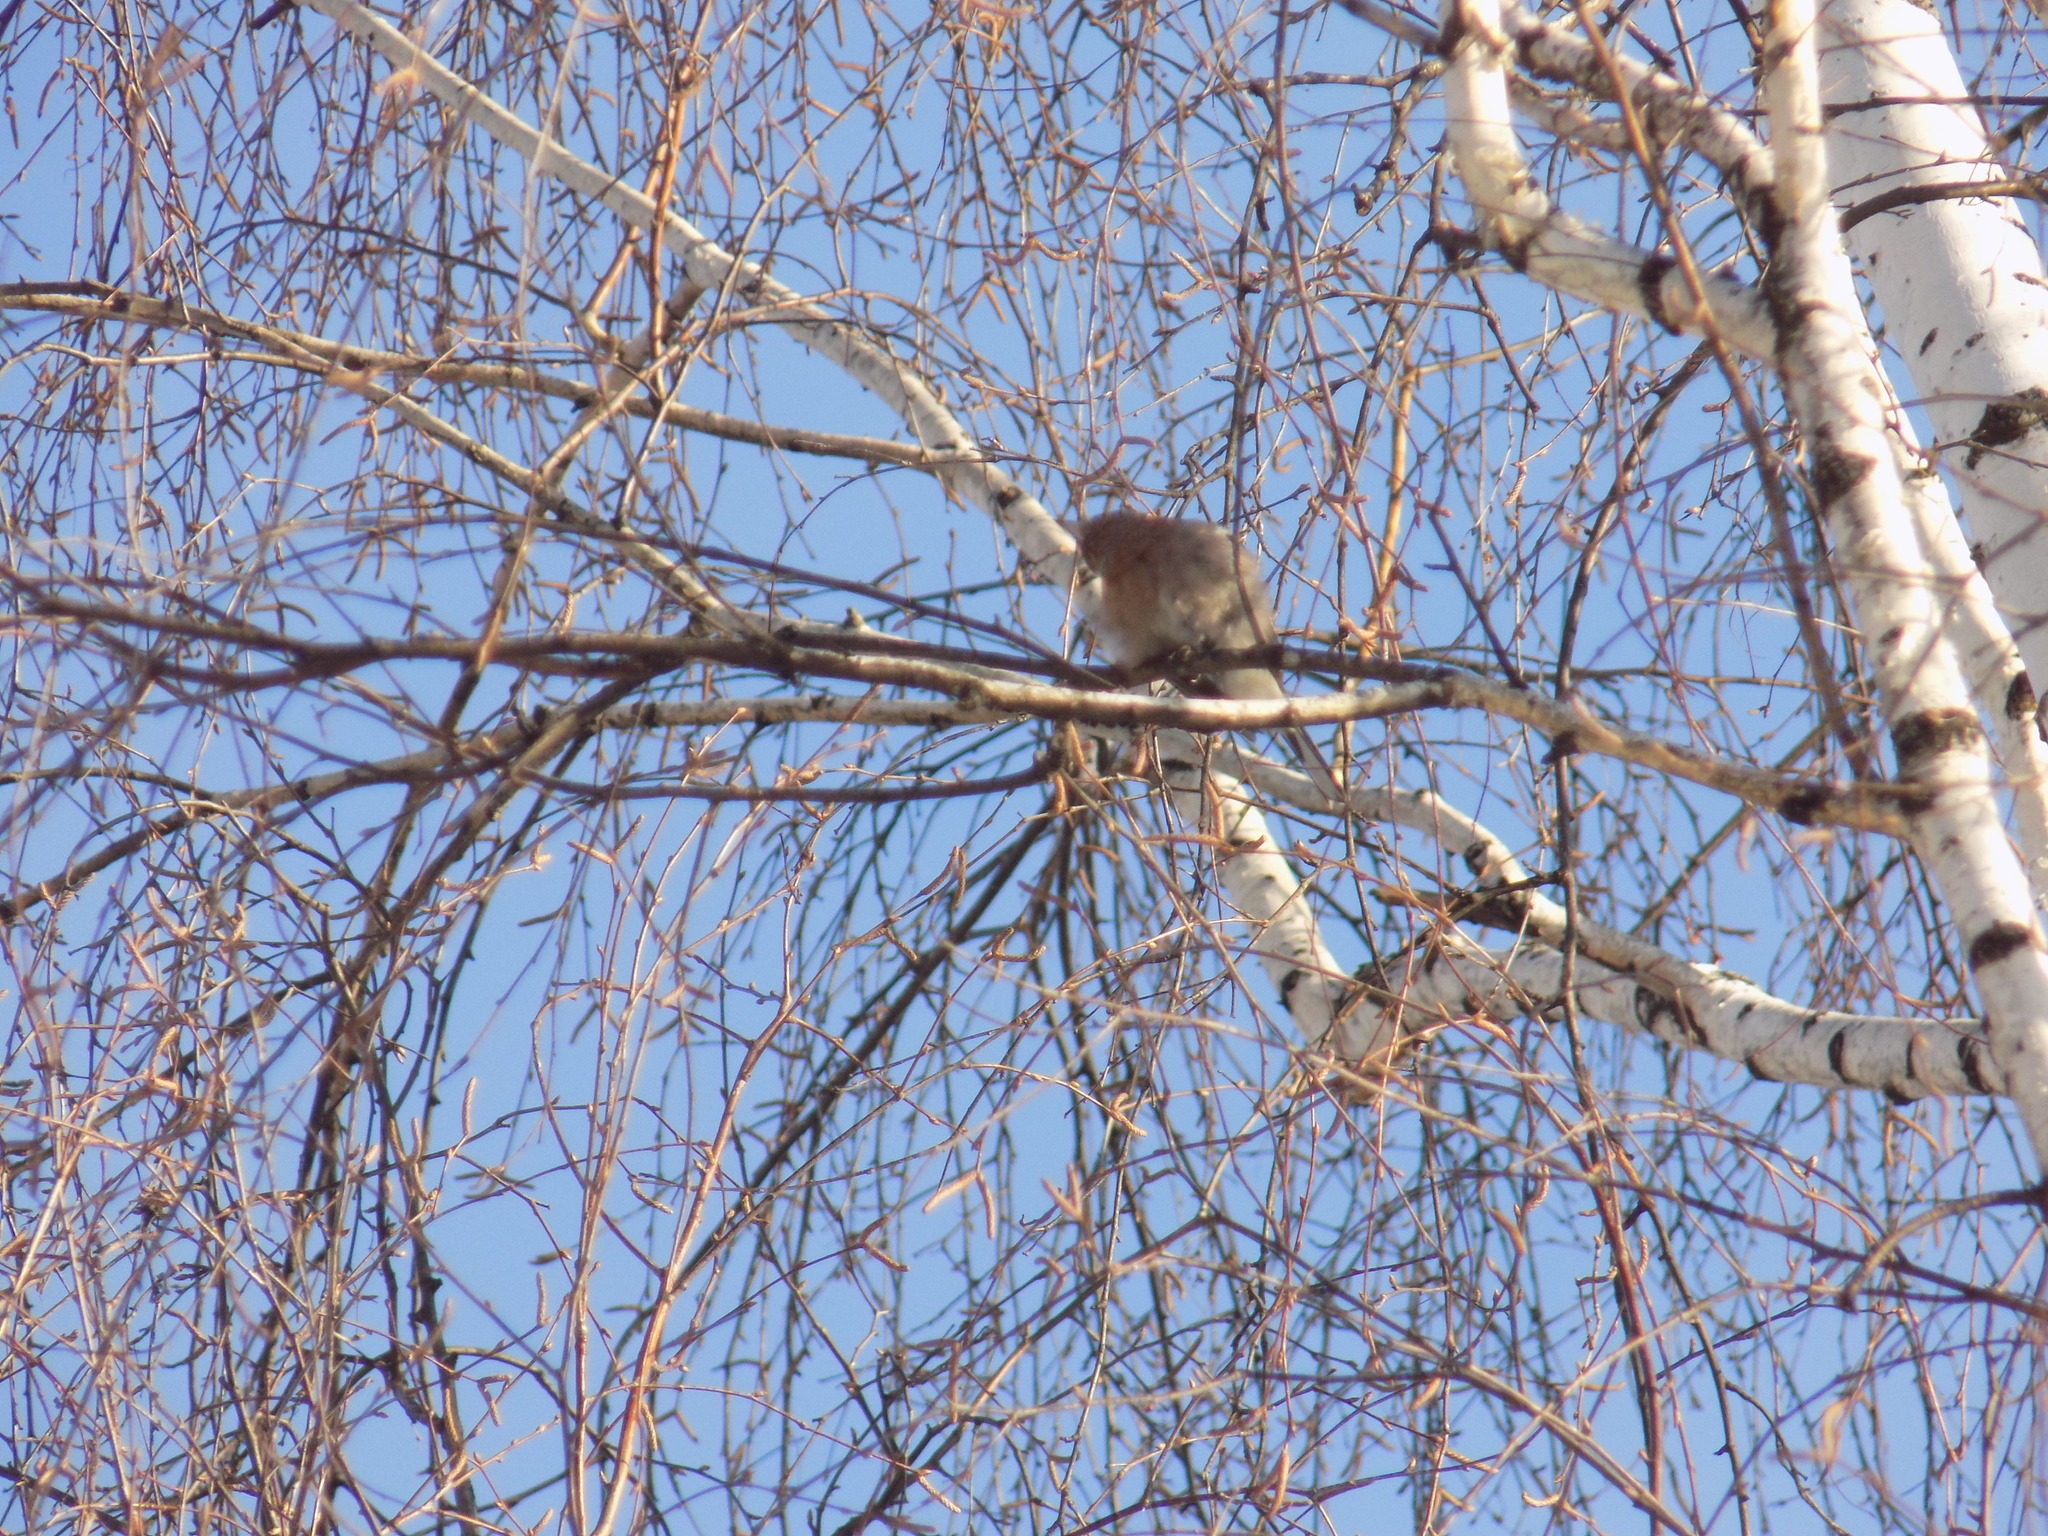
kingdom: Animalia
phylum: Chordata
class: Aves
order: Passeriformes
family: Fringillidae
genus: Fringilla
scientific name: Fringilla coelebs
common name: Common chaffinch
